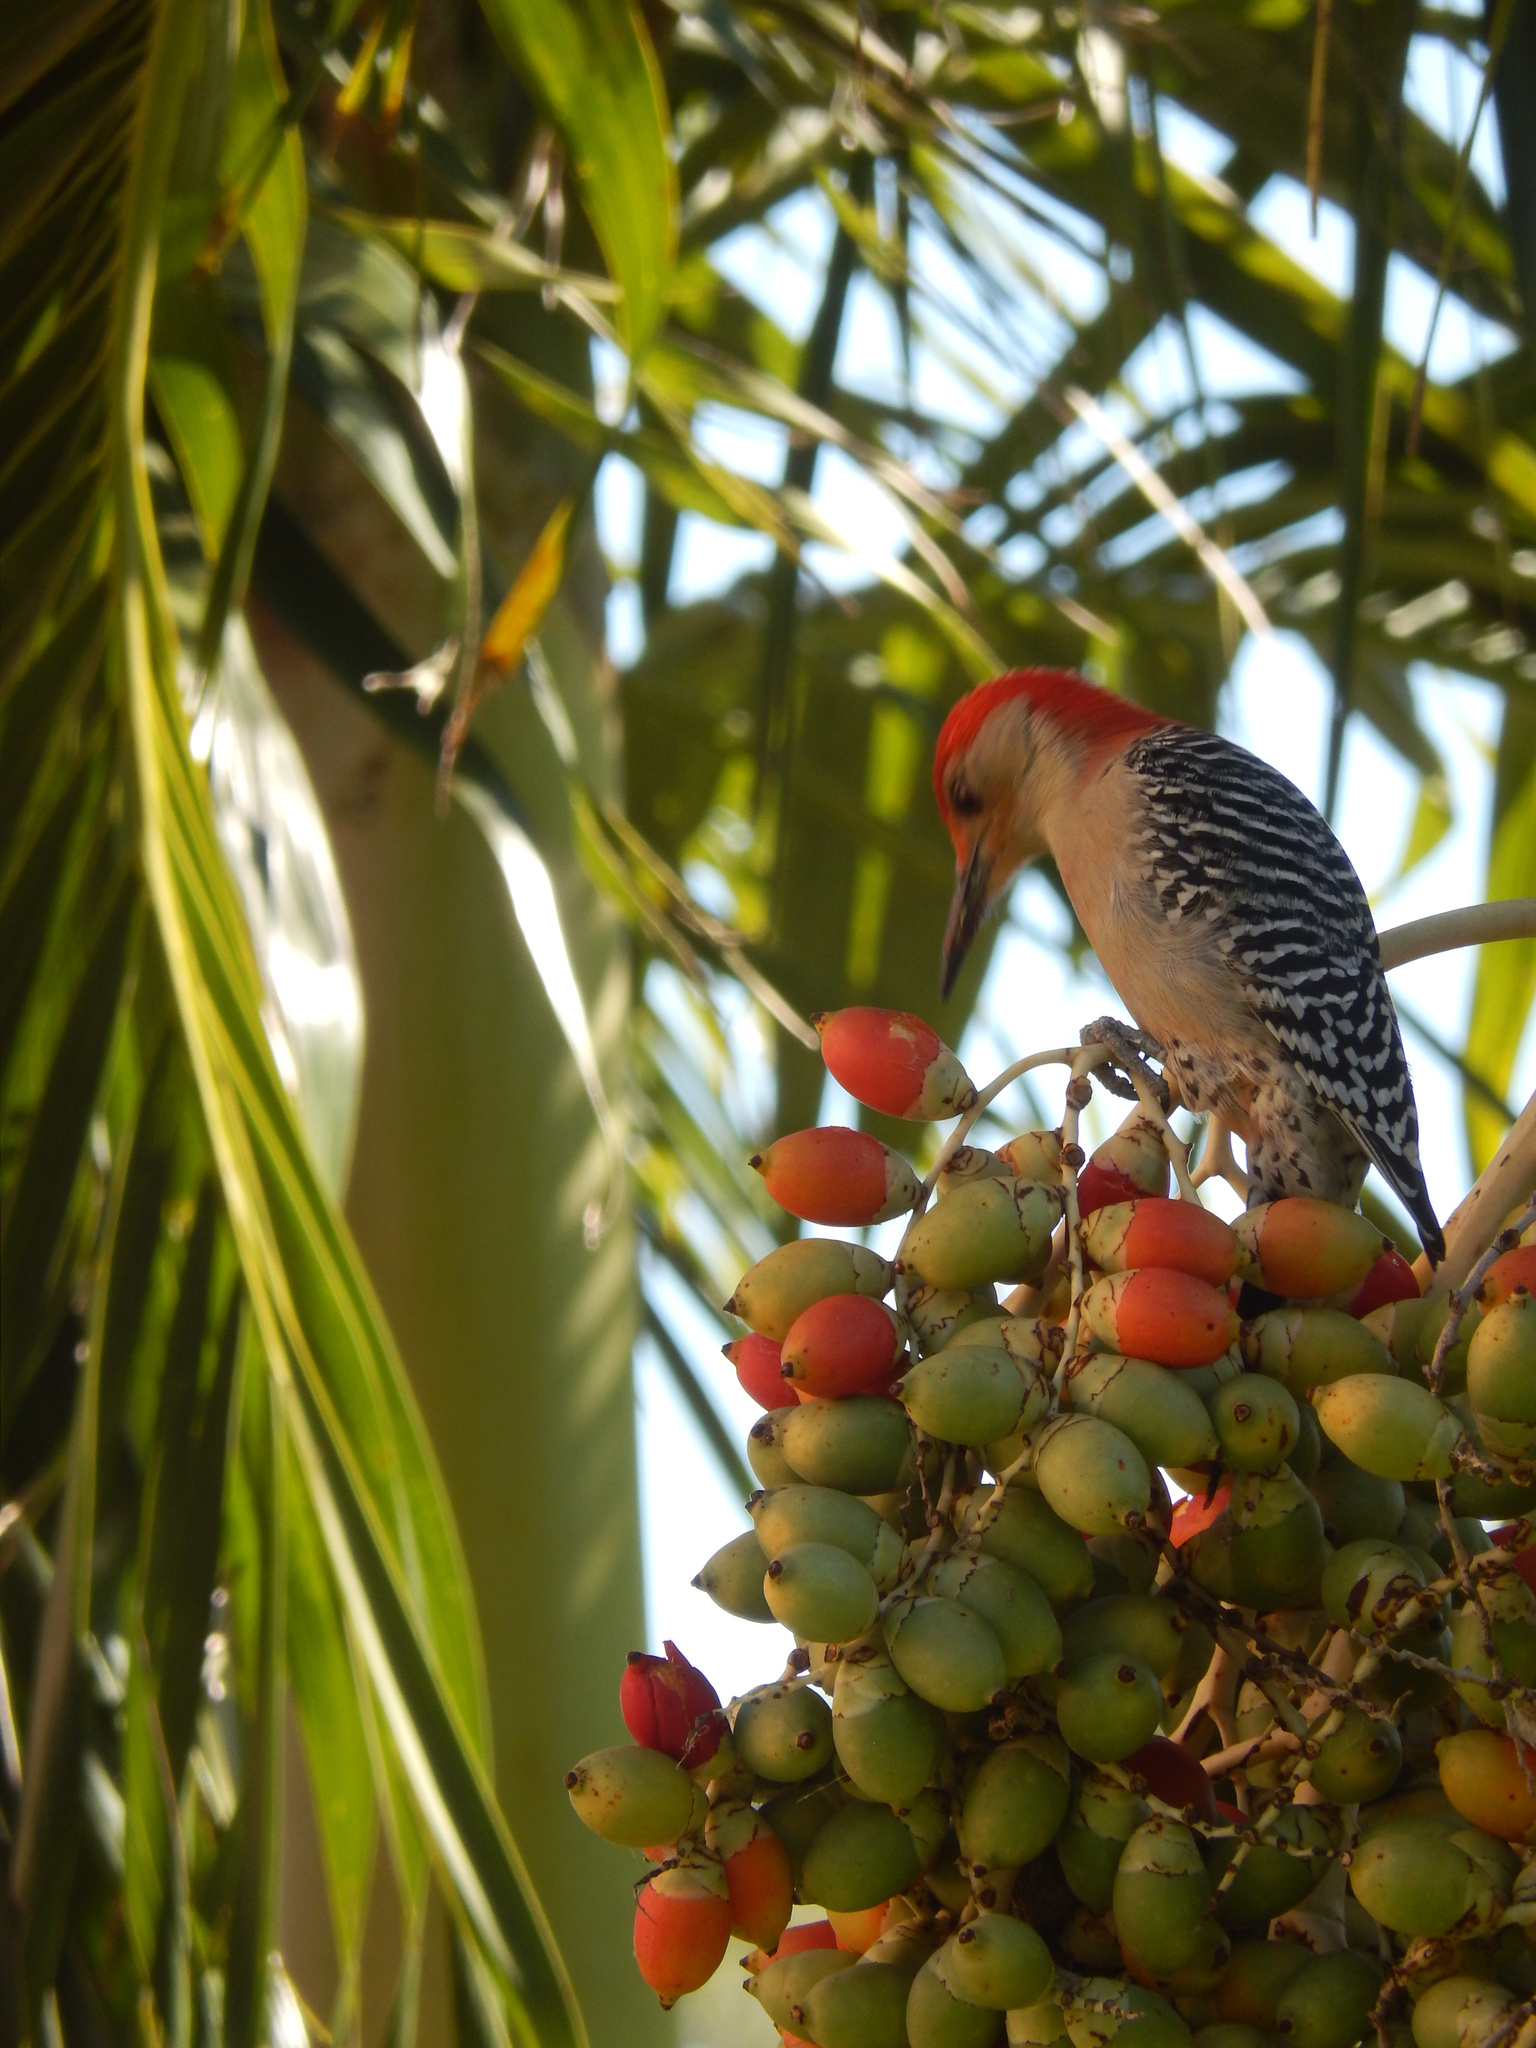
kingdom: Animalia
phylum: Chordata
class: Aves
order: Piciformes
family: Picidae
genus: Melanerpes
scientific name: Melanerpes carolinus
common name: Red-bellied woodpecker
